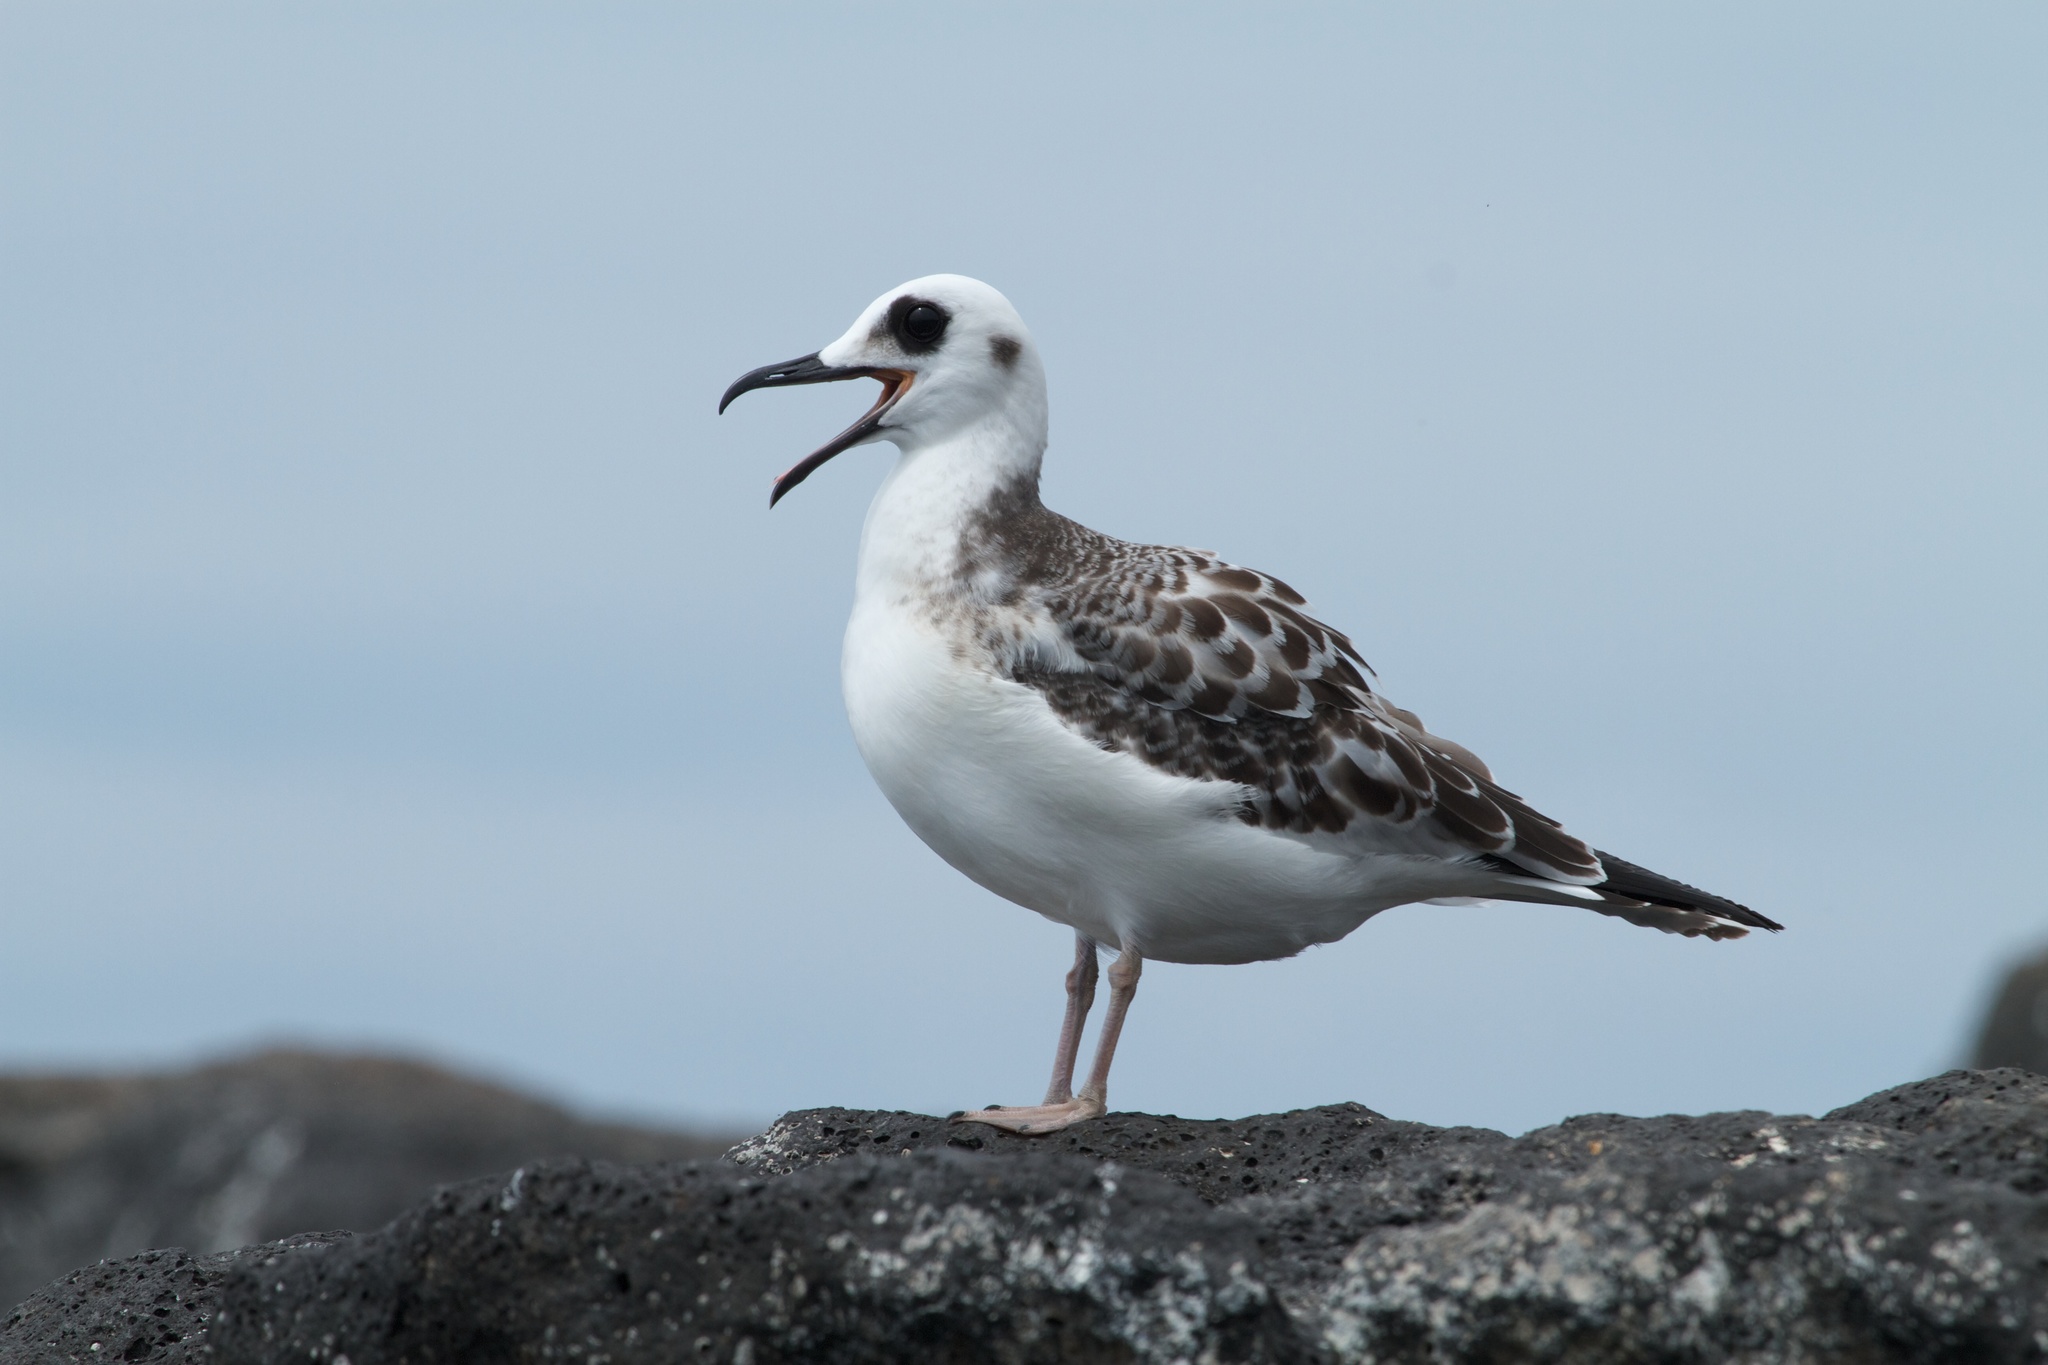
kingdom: Animalia
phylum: Chordata
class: Aves
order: Charadriiformes
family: Laridae
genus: Creagrus
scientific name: Creagrus furcatus
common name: Swallow-tailed gull
